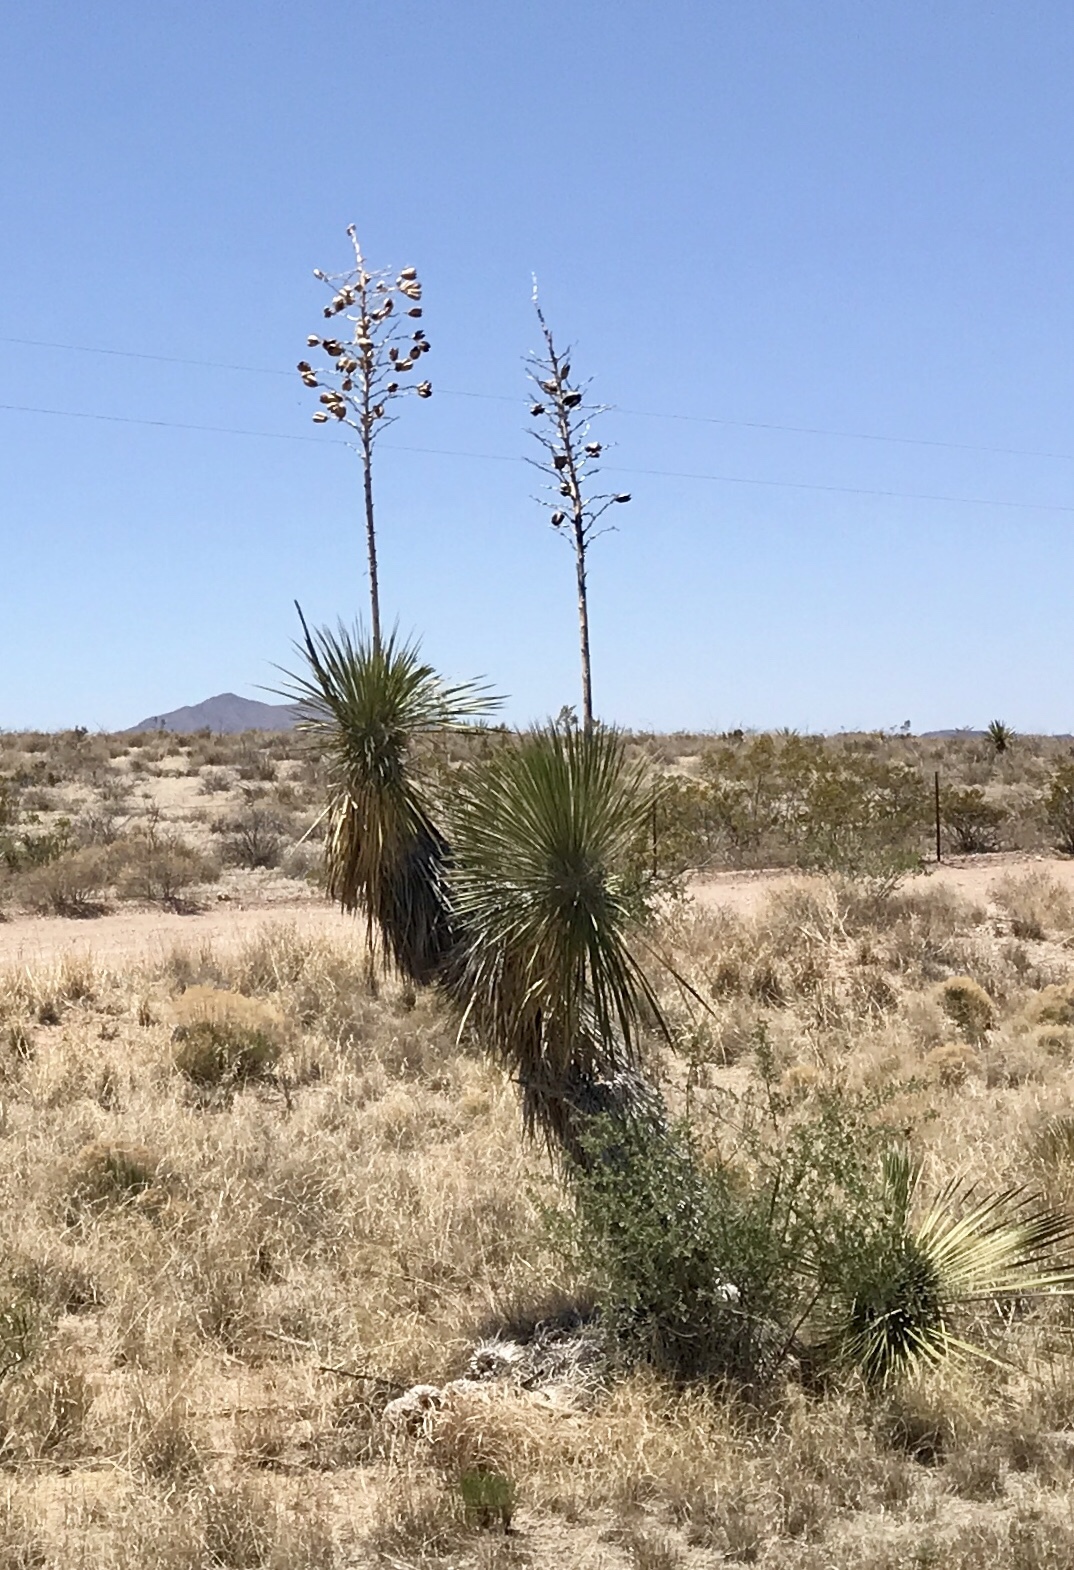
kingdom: Plantae
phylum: Tracheophyta
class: Liliopsida
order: Asparagales
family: Asparagaceae
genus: Yucca
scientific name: Yucca elata
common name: Palmella
